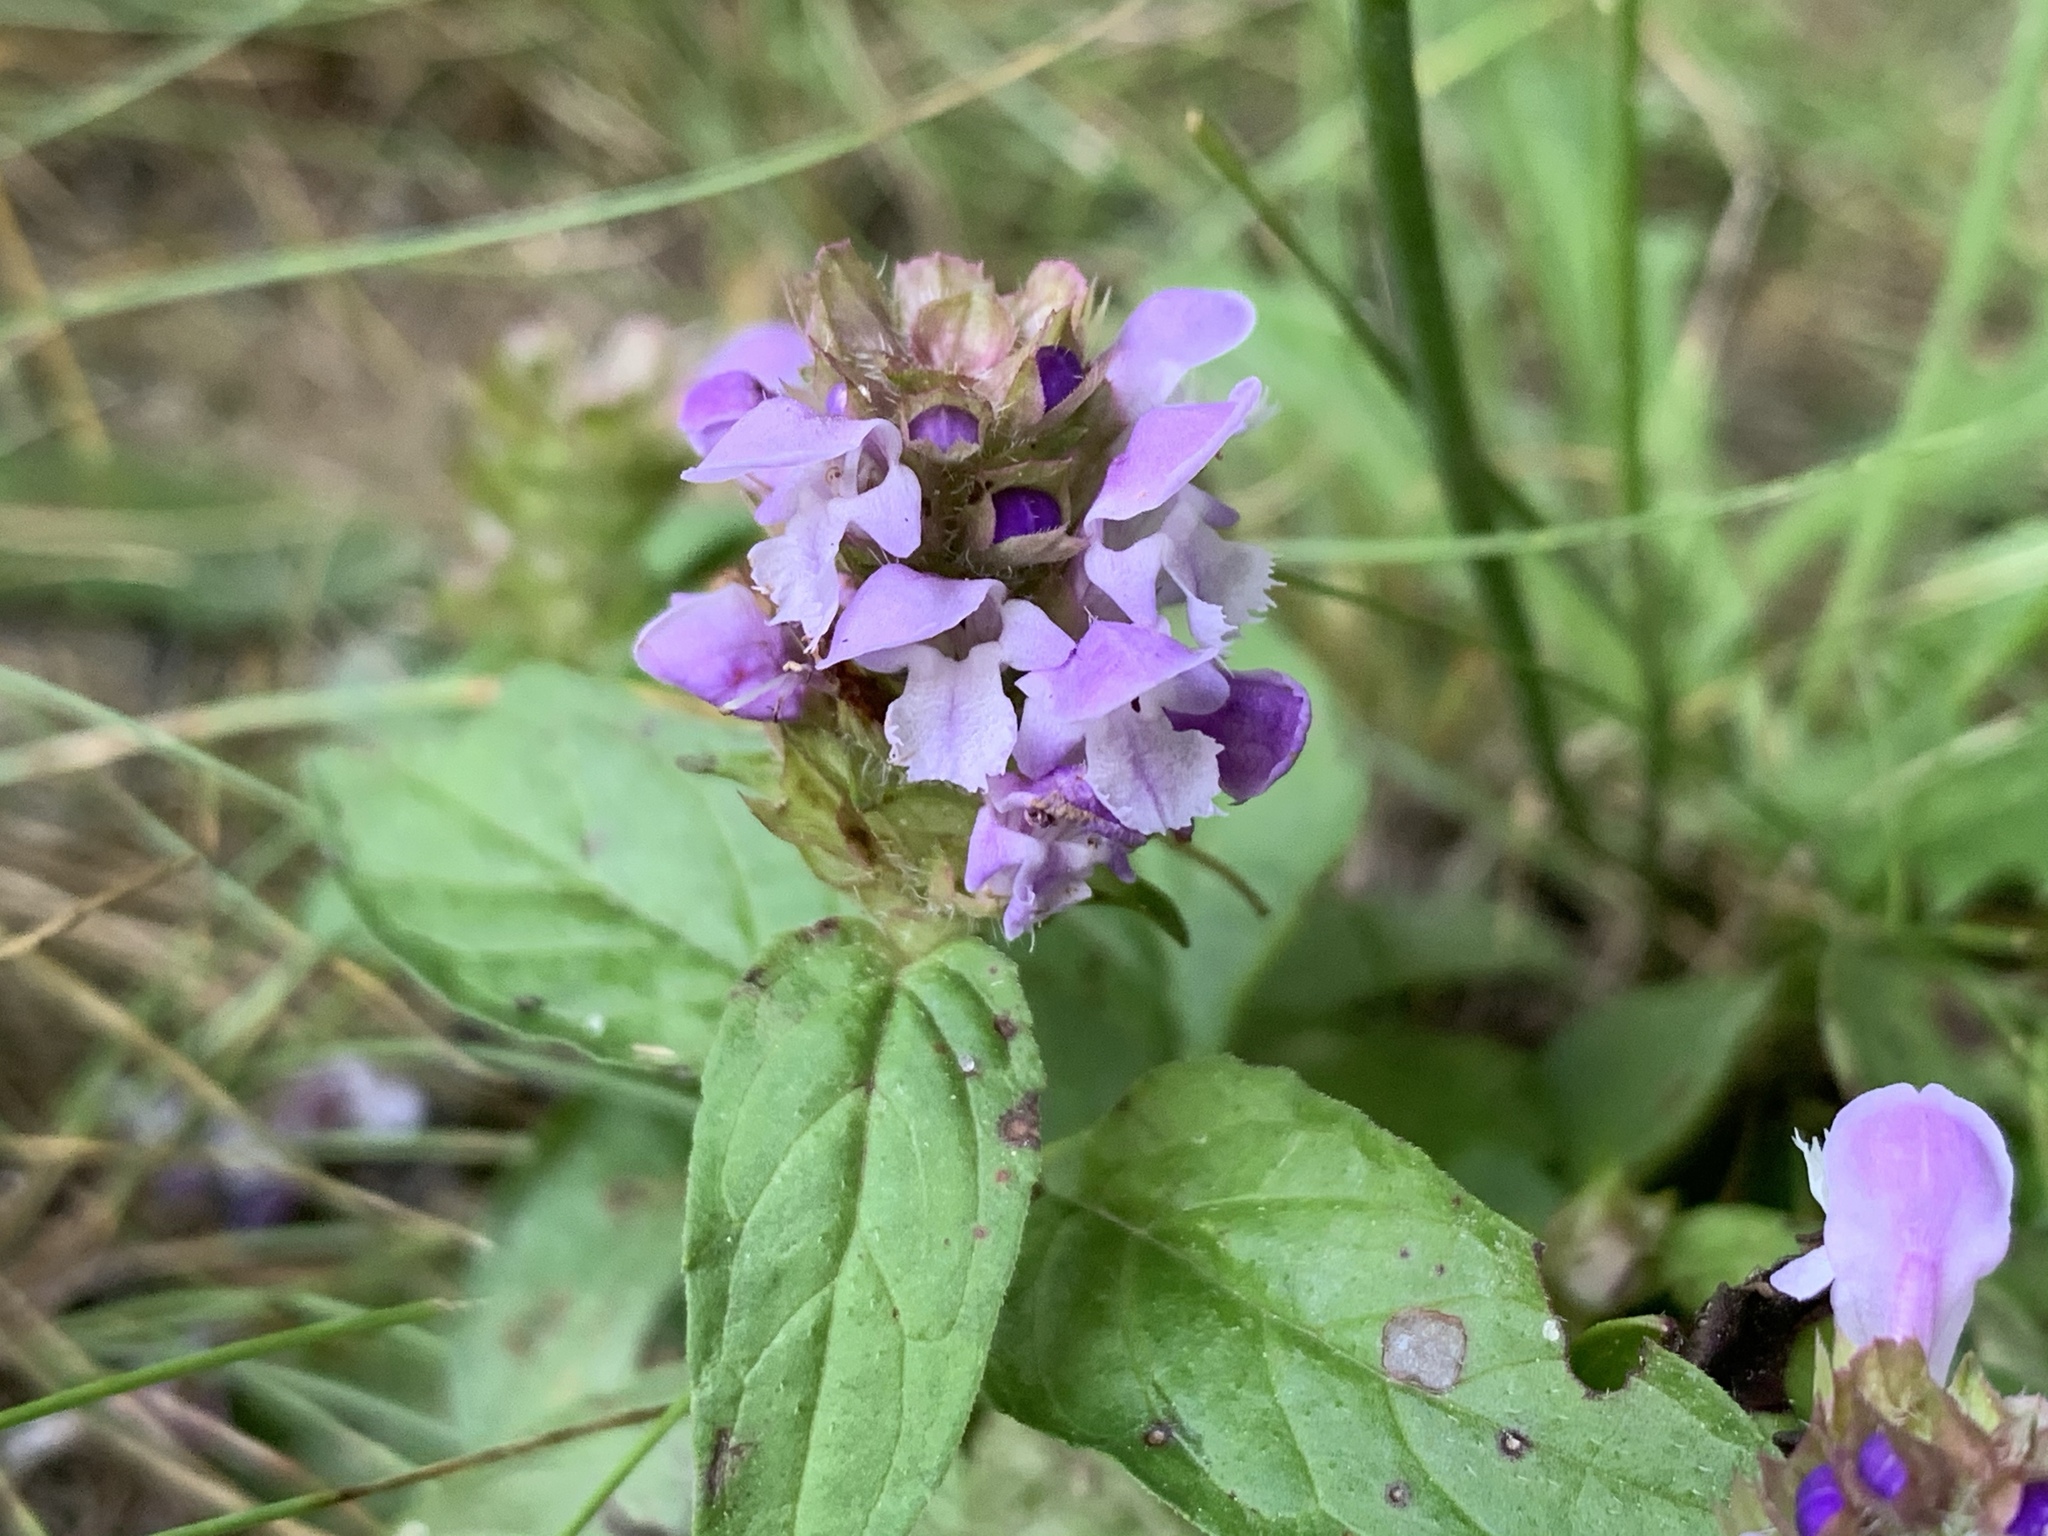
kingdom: Plantae
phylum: Tracheophyta
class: Magnoliopsida
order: Lamiales
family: Lamiaceae
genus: Prunella
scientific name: Prunella vulgaris
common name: Heal-all
